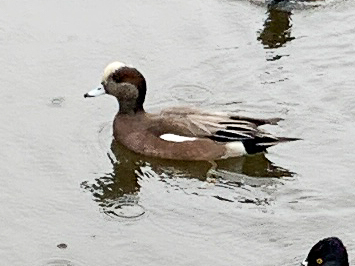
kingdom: Animalia
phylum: Chordata
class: Aves
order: Anseriformes
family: Anatidae
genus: Mareca
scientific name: Mareca americana
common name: American wigeon
